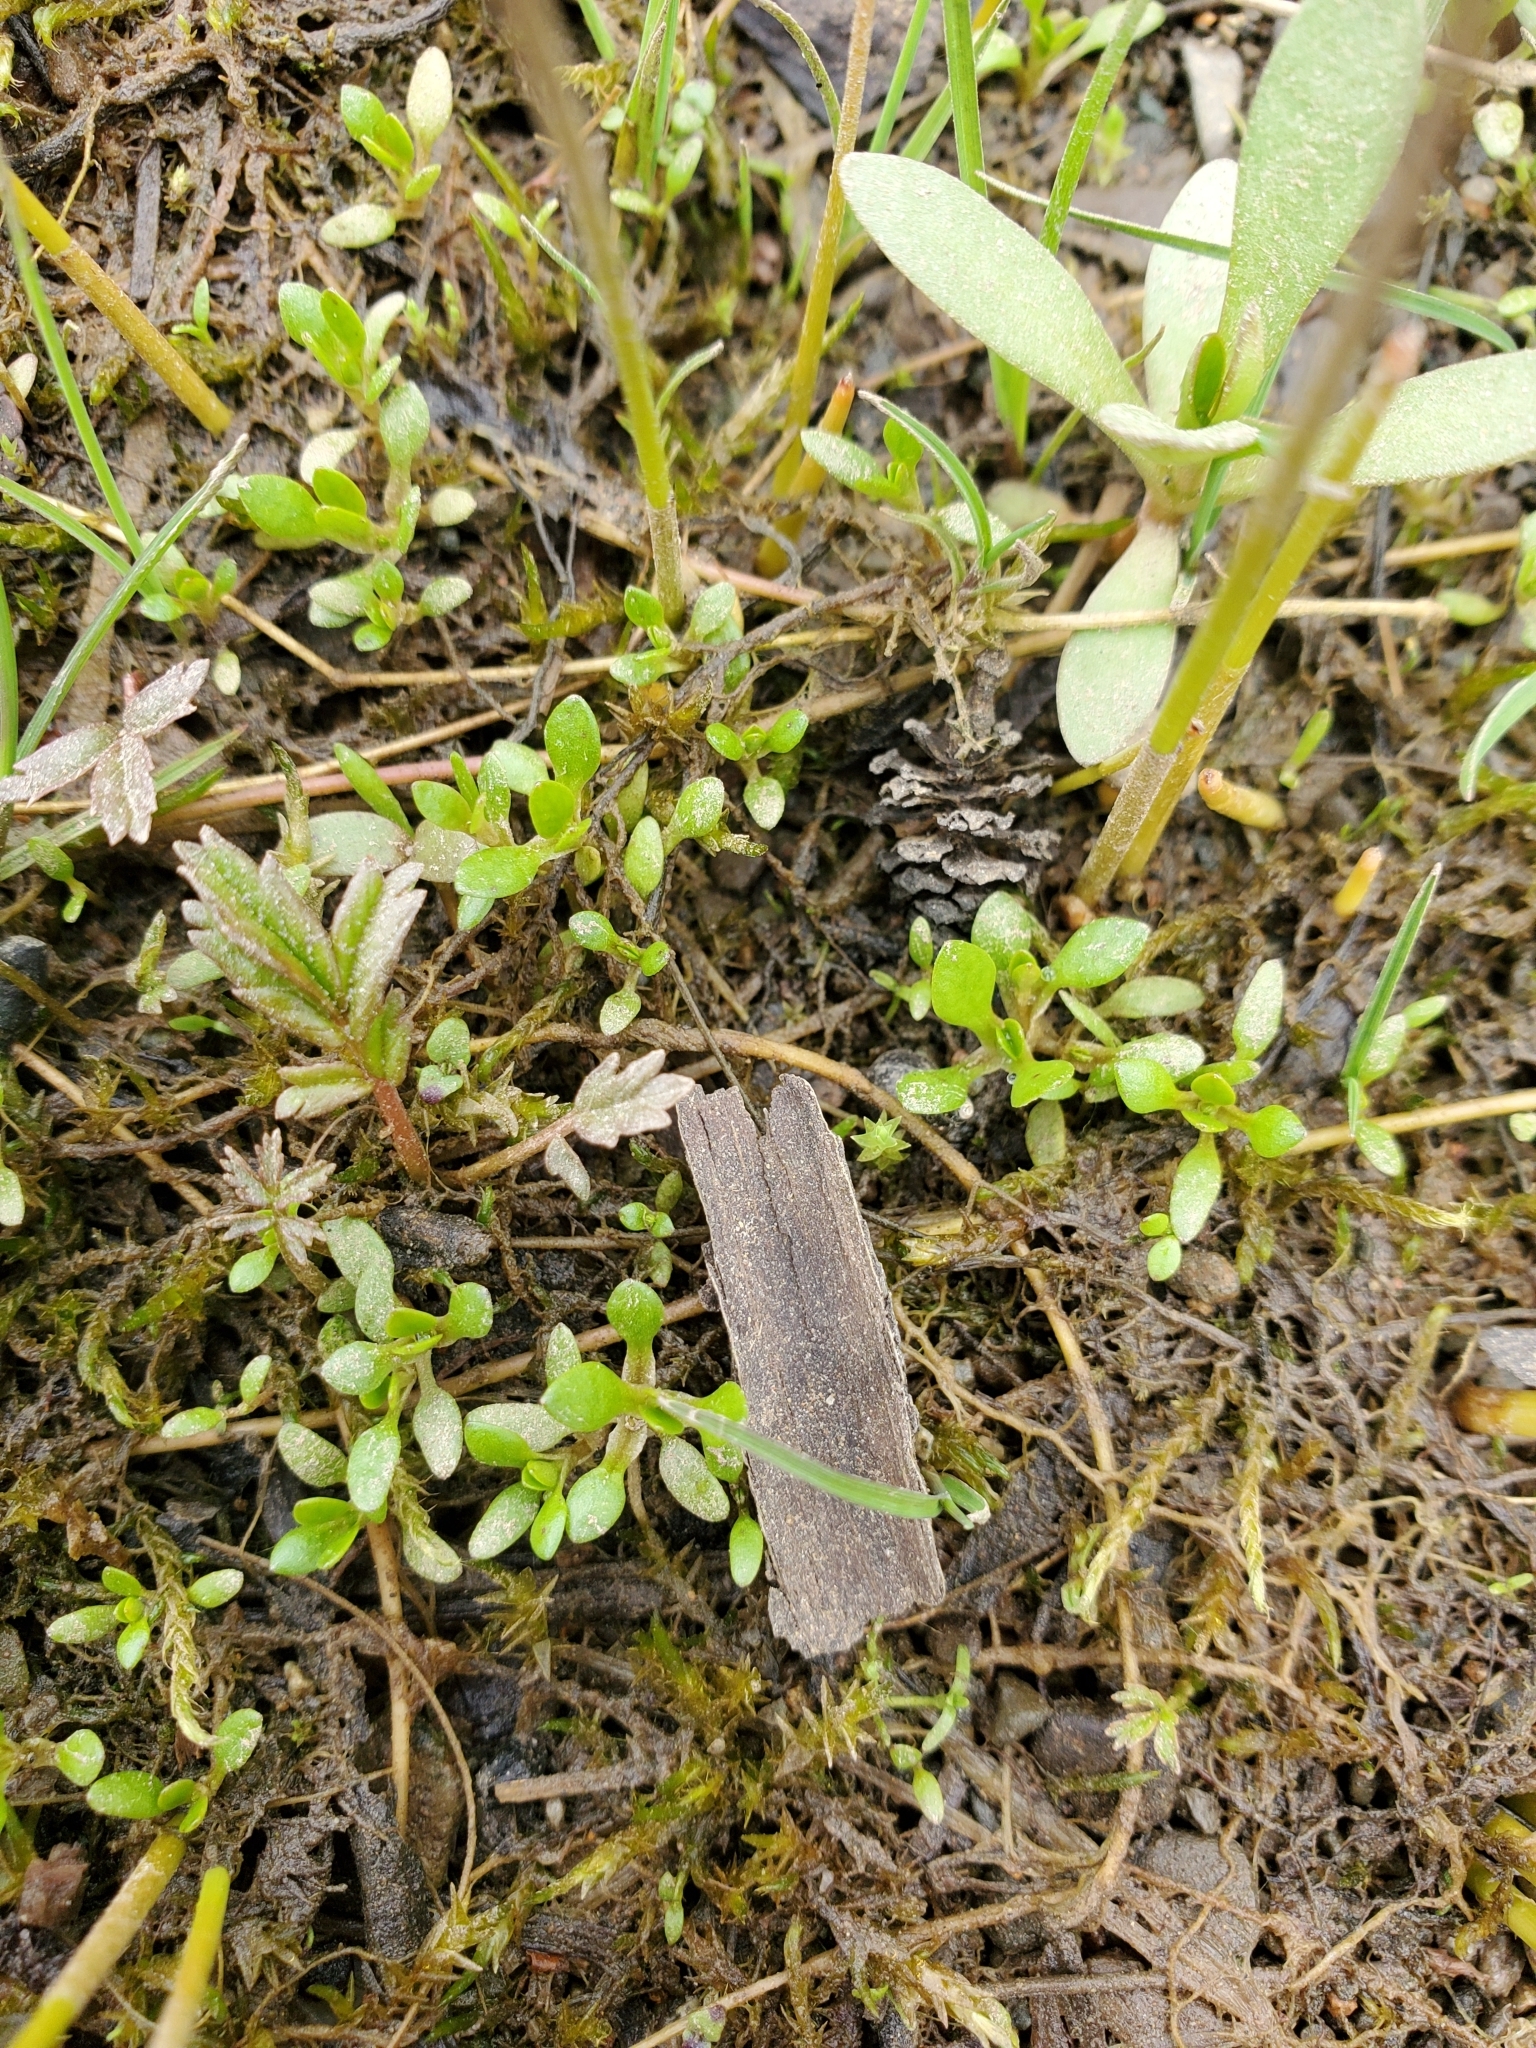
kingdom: Plantae
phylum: Tracheophyta
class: Magnoliopsida
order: Caryophyllales
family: Montiaceae
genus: Montia
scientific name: Montia fontana
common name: Blinks
